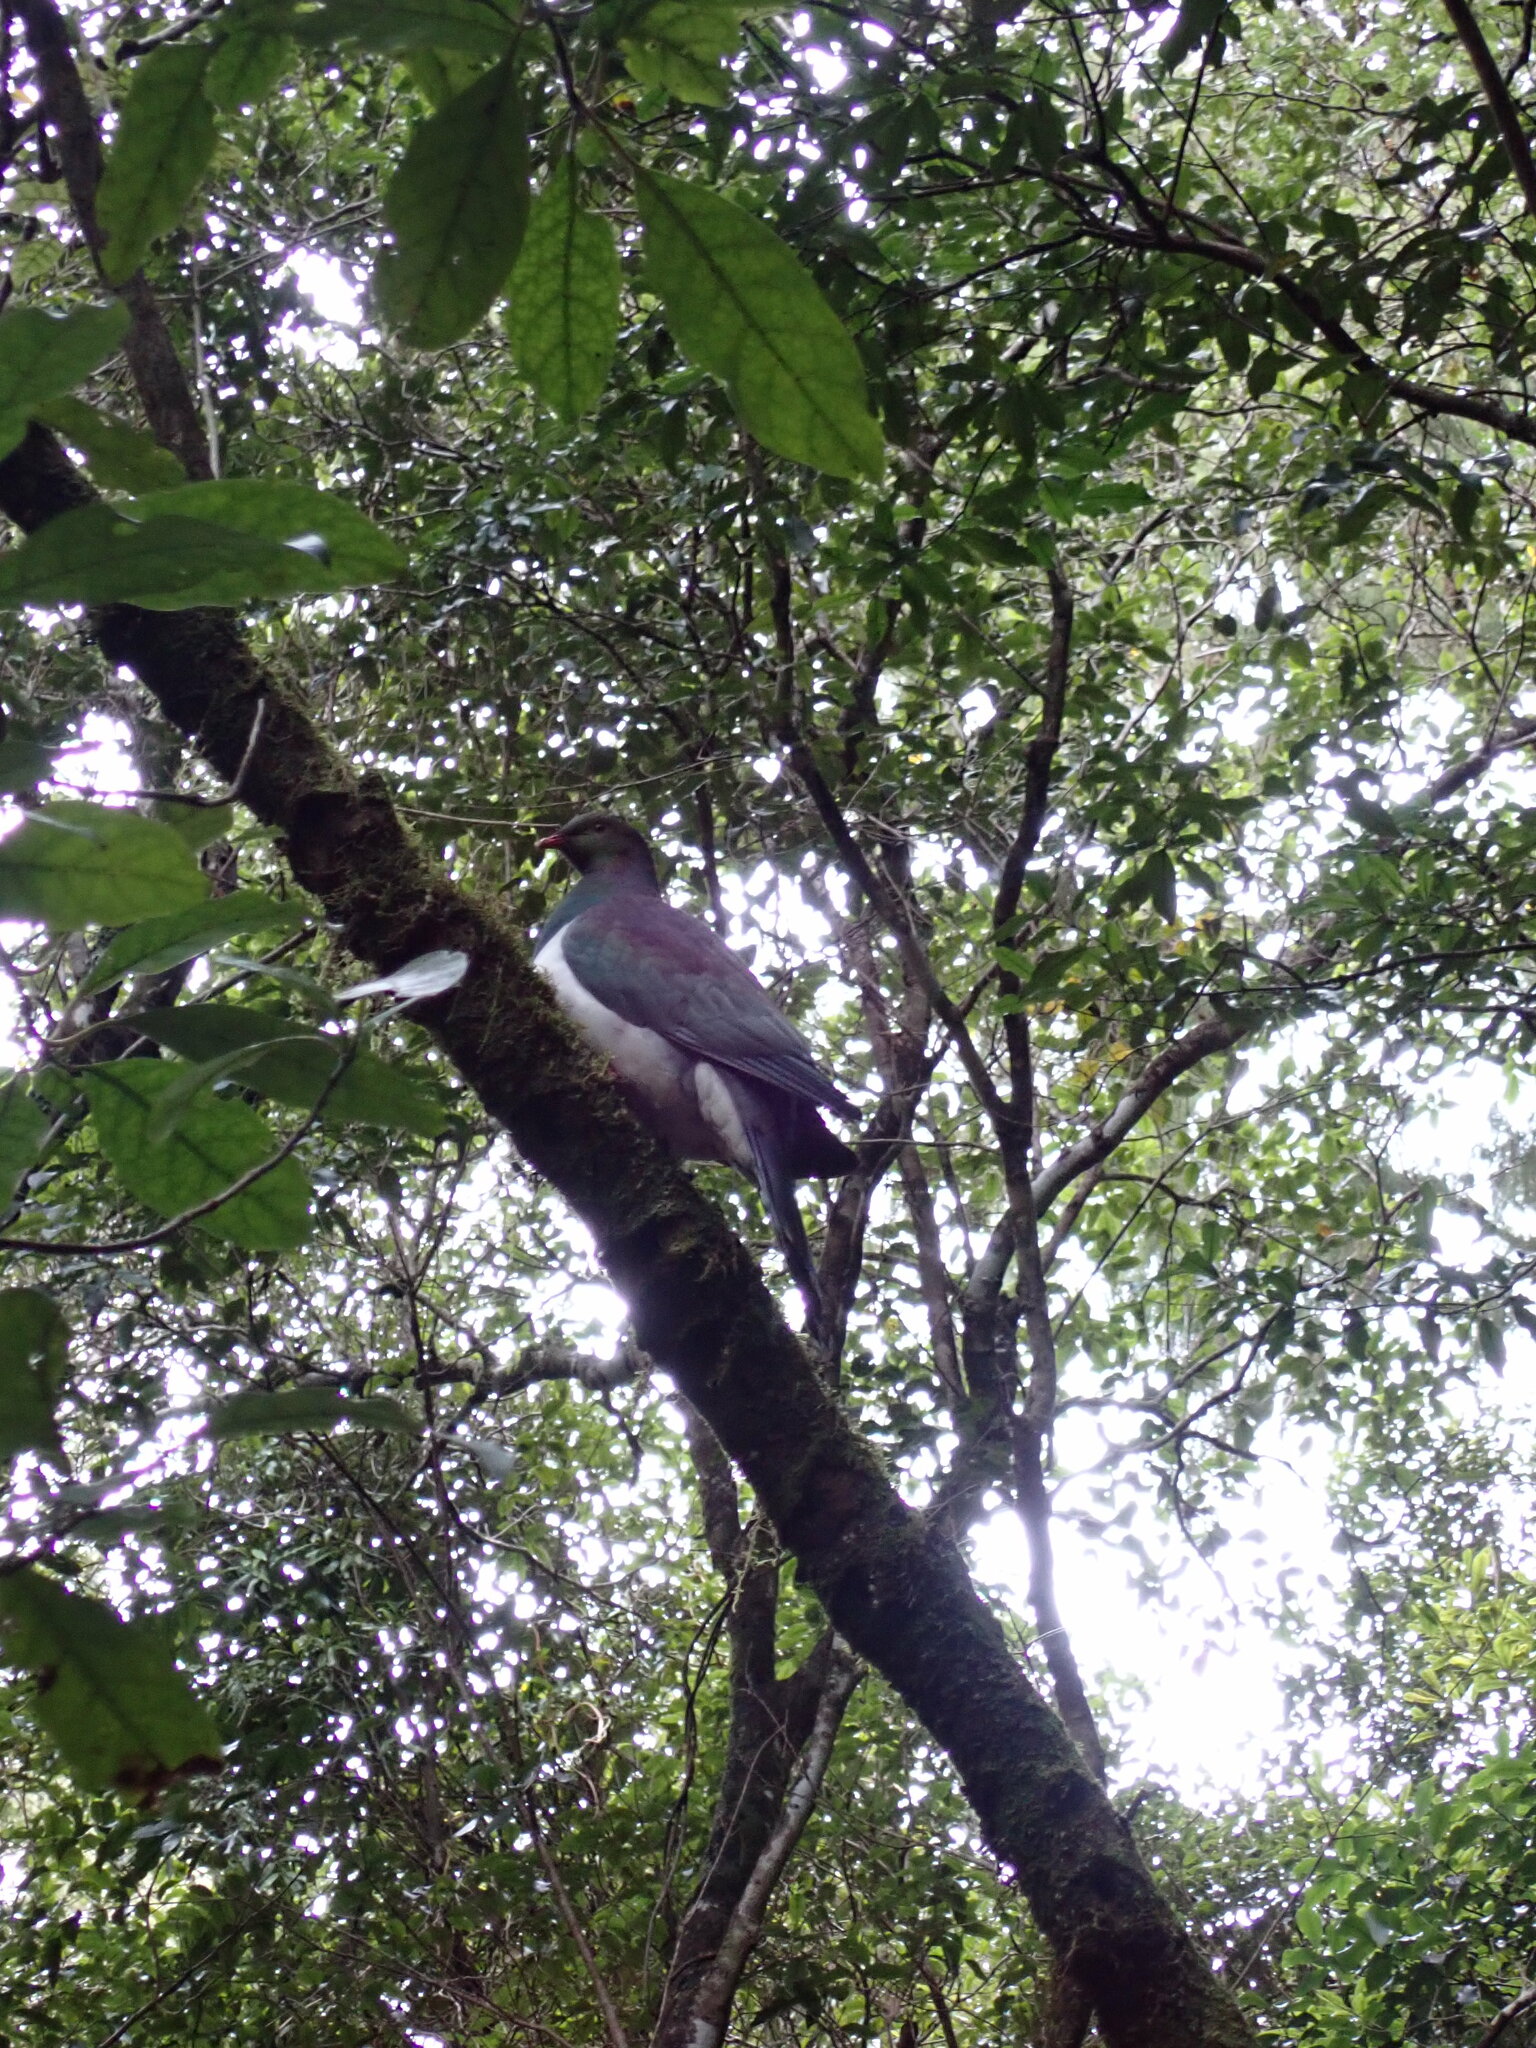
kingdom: Animalia
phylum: Chordata
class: Aves
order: Columbiformes
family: Columbidae
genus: Hemiphaga
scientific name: Hemiphaga novaeseelandiae
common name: New zealand pigeon
